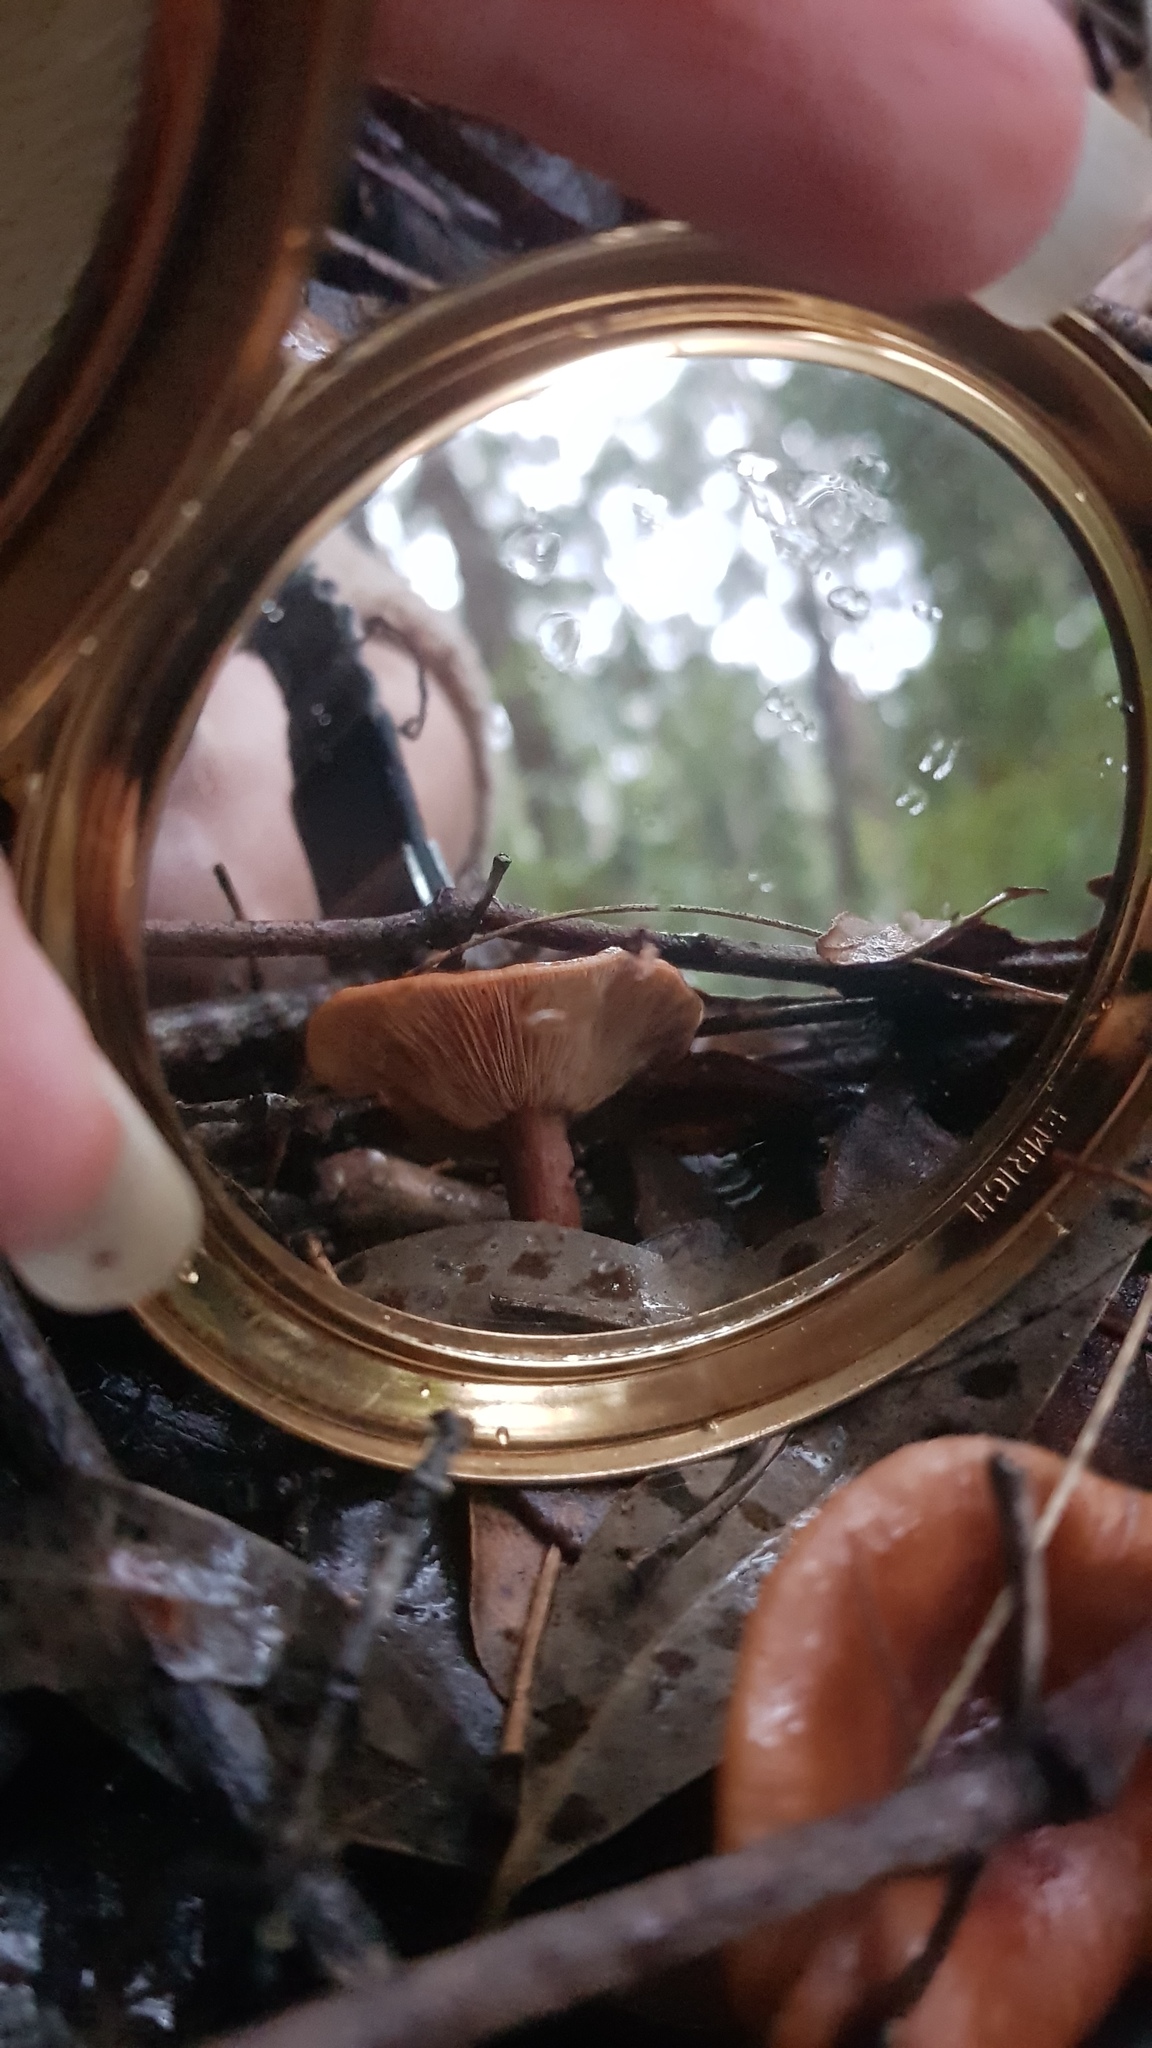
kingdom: Fungi
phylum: Basidiomycota
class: Agaricomycetes
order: Russulales
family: Russulaceae
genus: Lactarius
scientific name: Lactarius eucalypti
